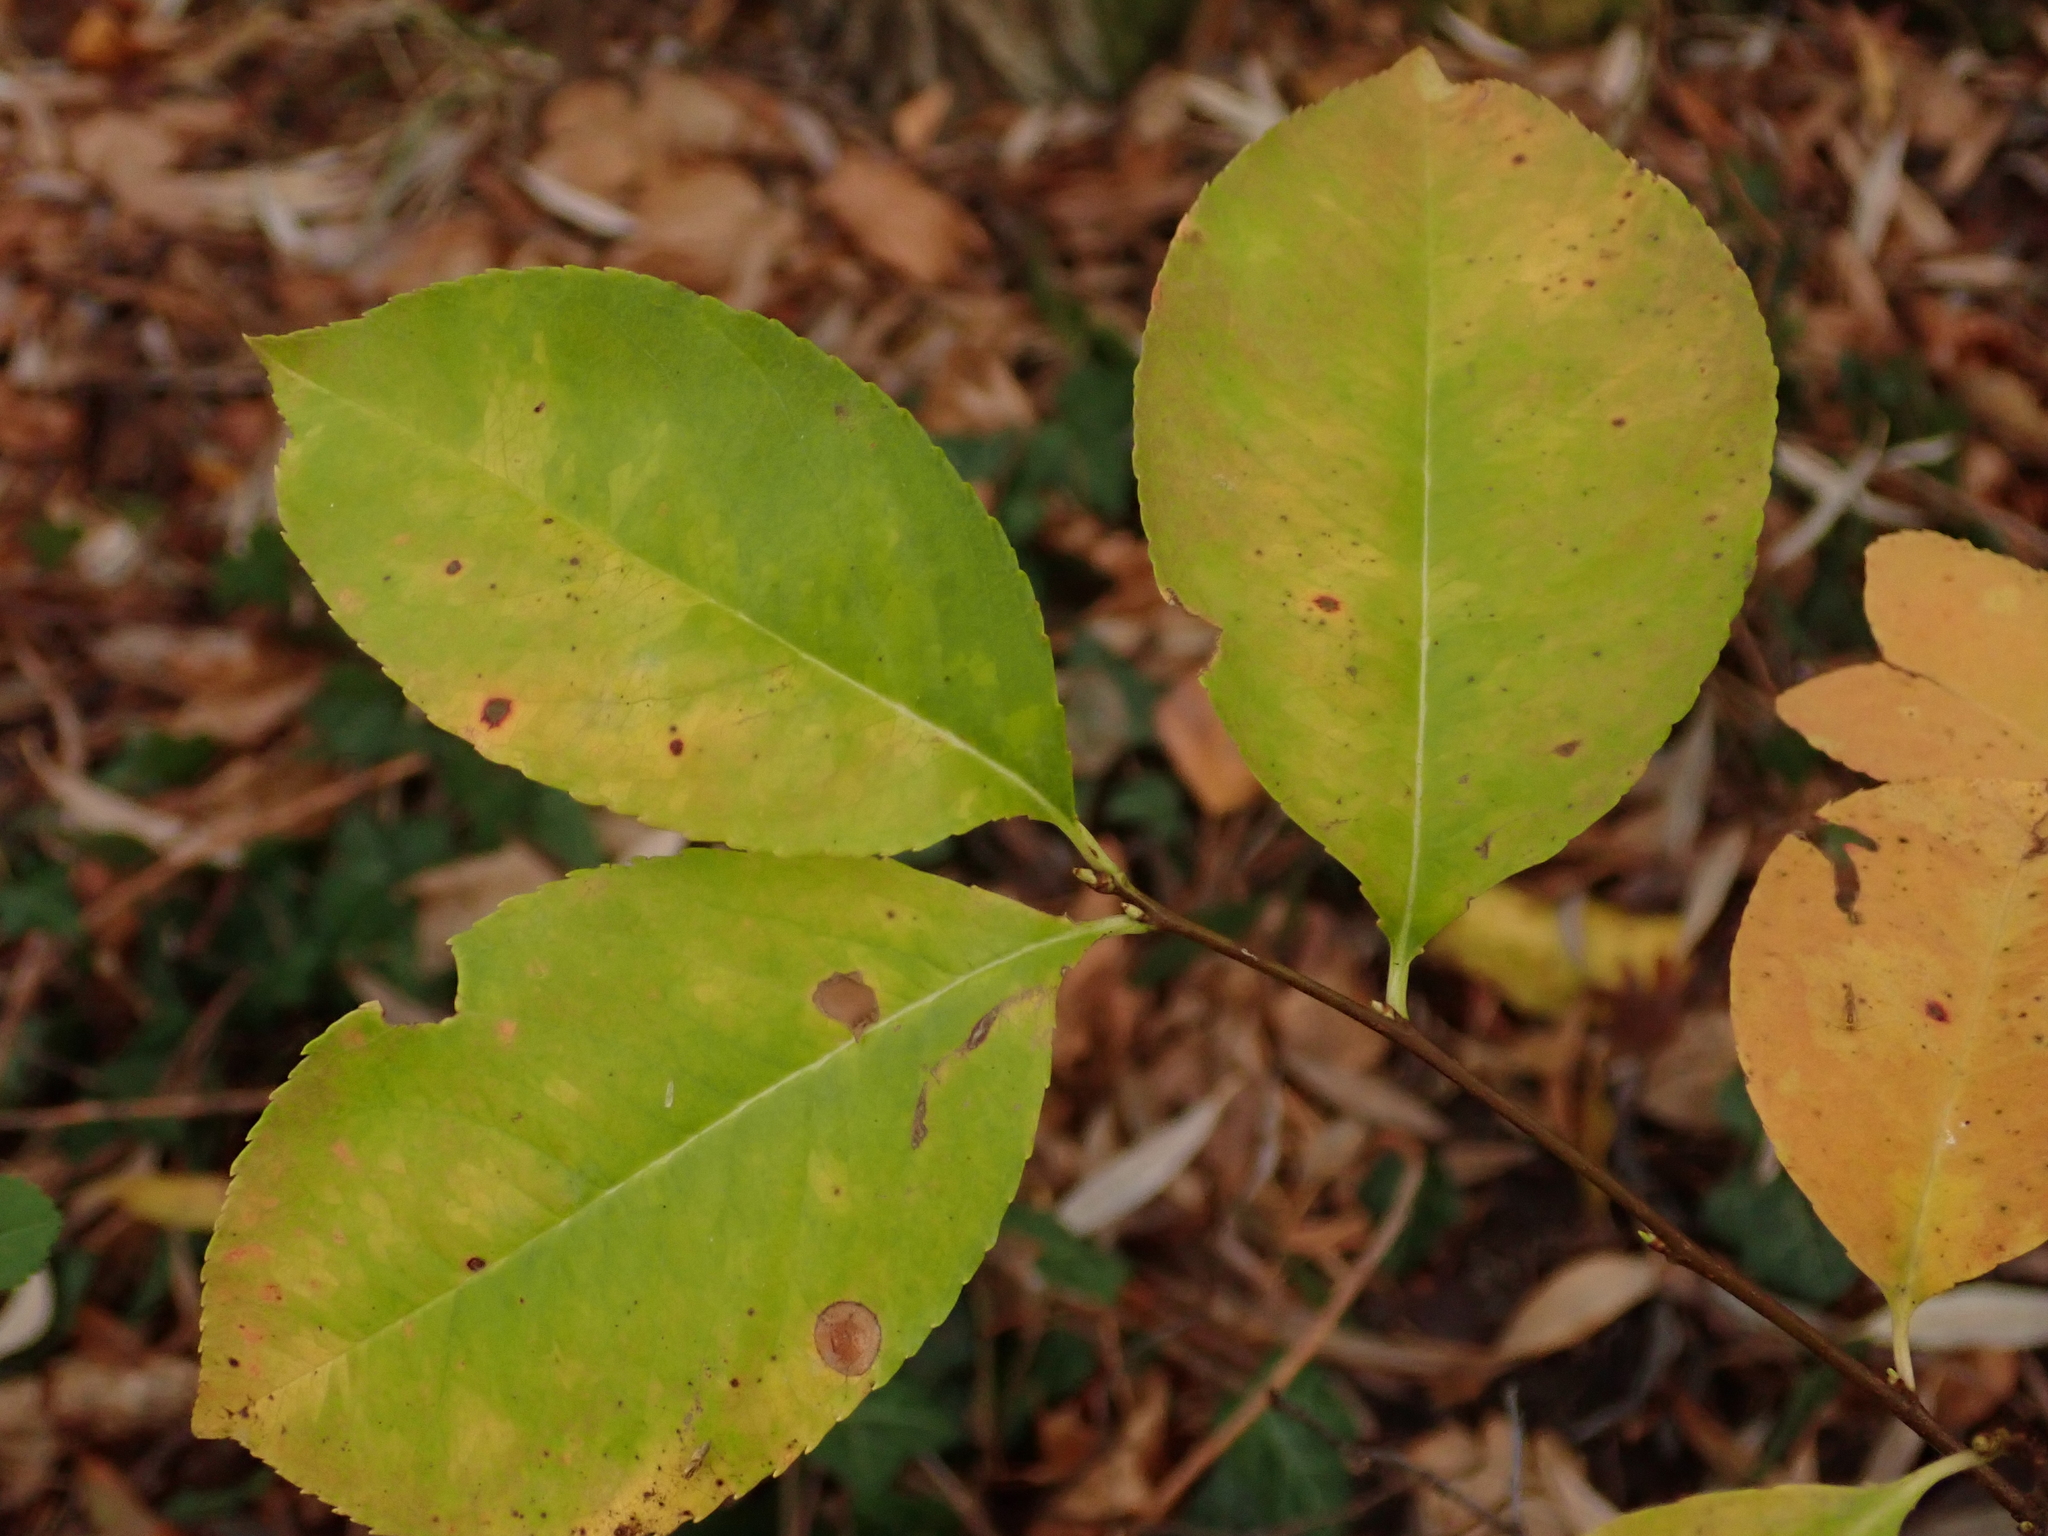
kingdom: Plantae
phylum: Tracheophyta
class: Magnoliopsida
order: Rosales
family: Rosaceae
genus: Prunus
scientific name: Prunus serotina
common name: Black cherry
